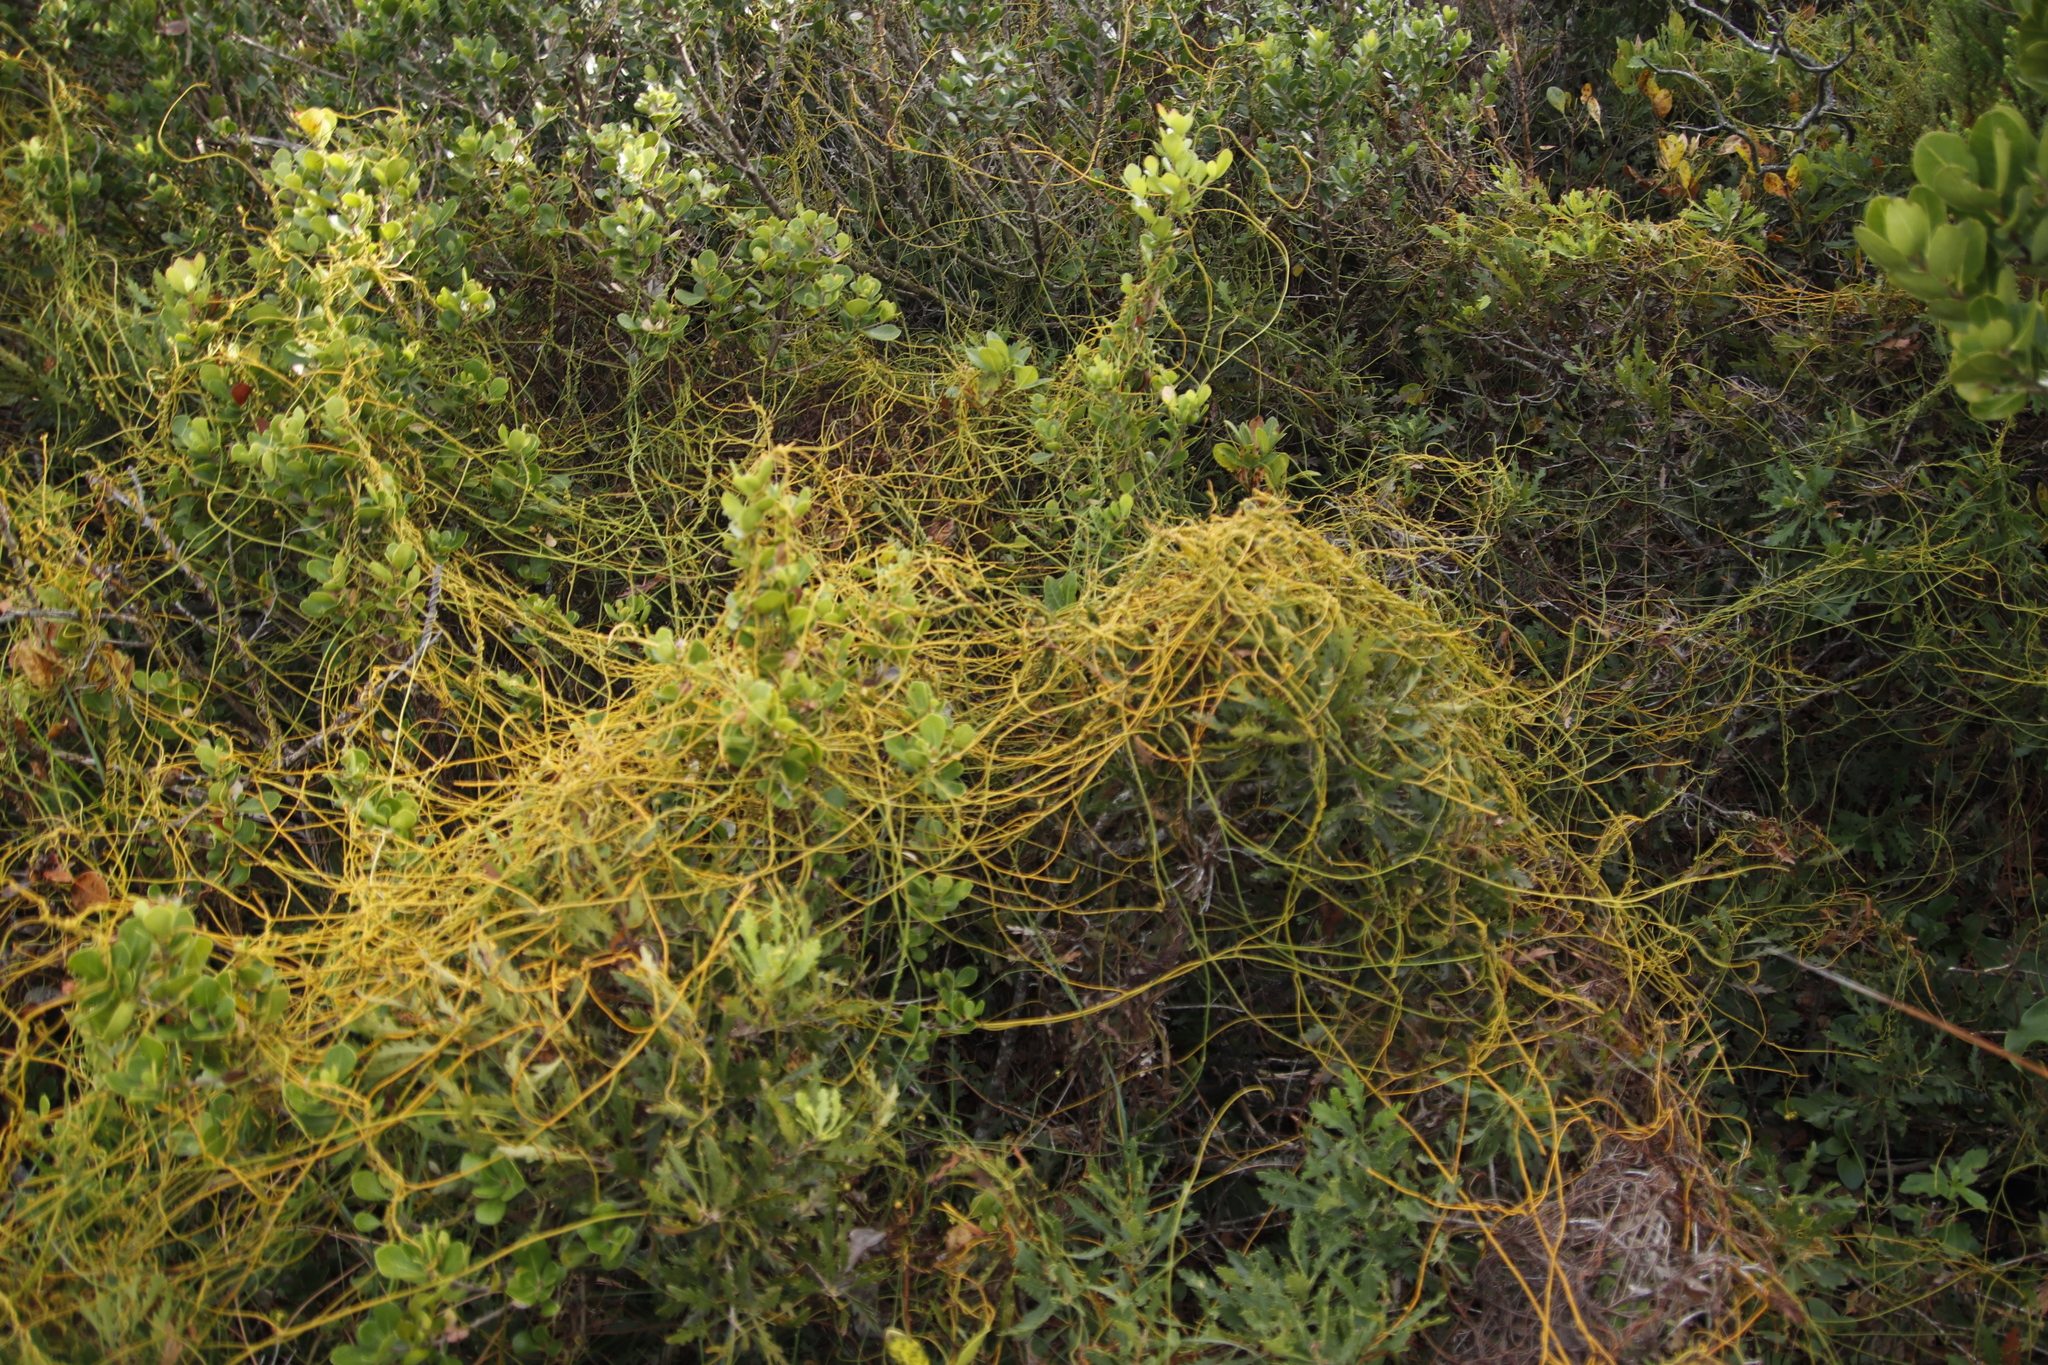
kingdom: Plantae
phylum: Tracheophyta
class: Magnoliopsida
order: Laurales
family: Lauraceae
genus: Cassytha
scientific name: Cassytha ciliolata
